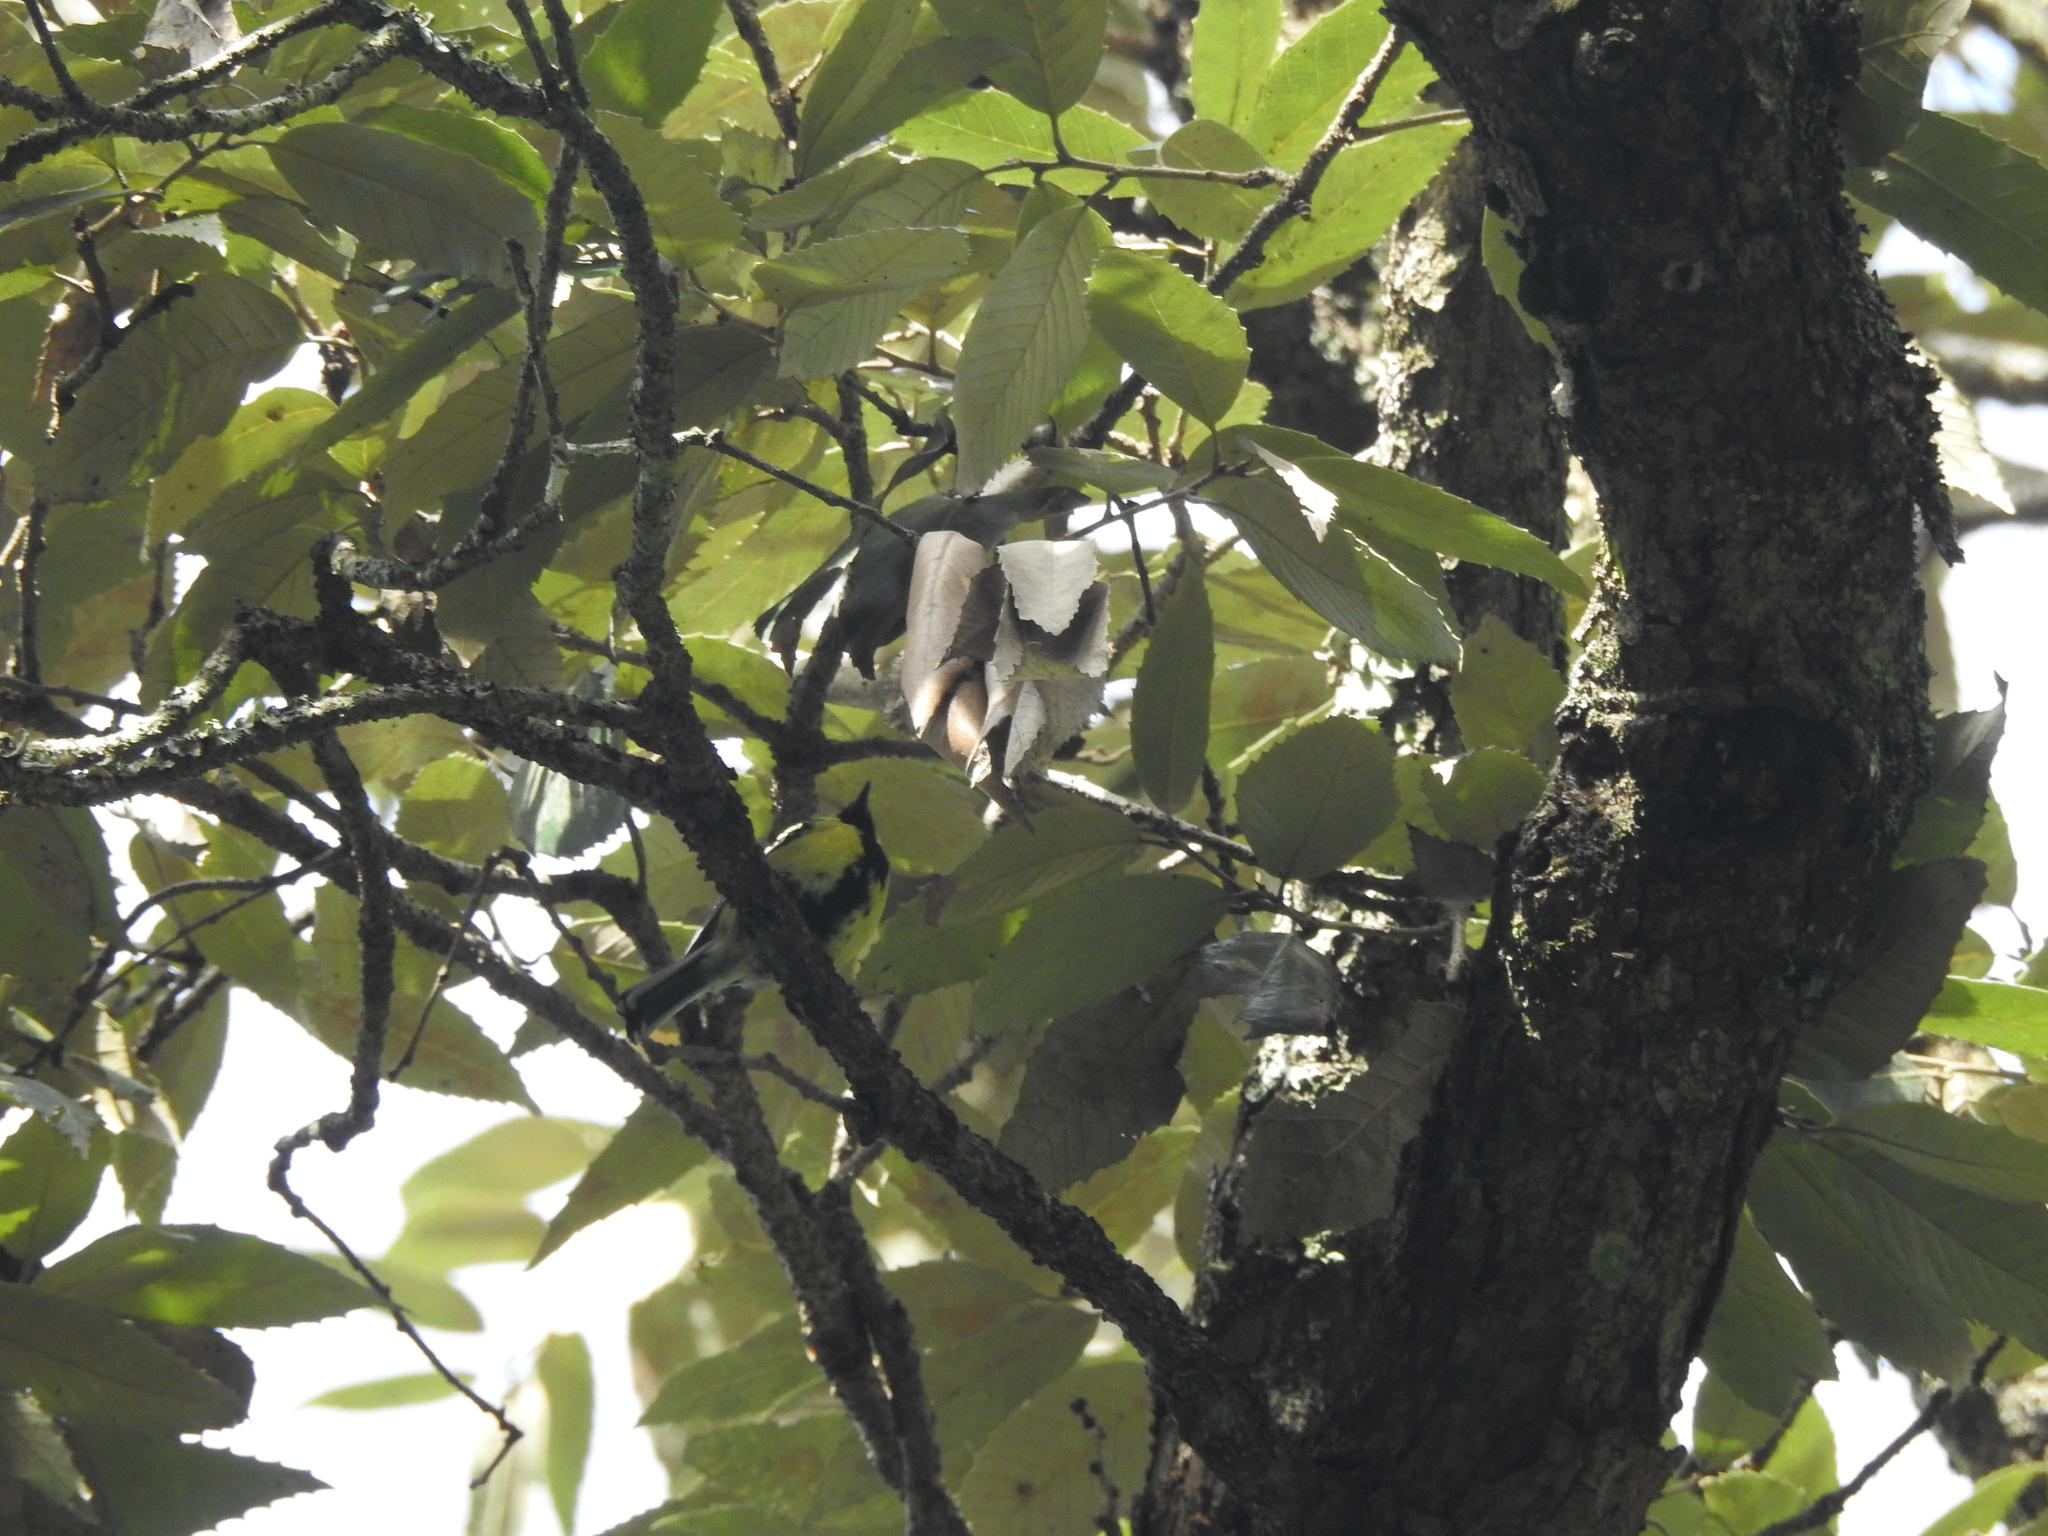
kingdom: Animalia
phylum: Chordata
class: Aves
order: Passeriformes
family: Paridae
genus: Parus
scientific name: Parus xanthogenys
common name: Black-lored tit
